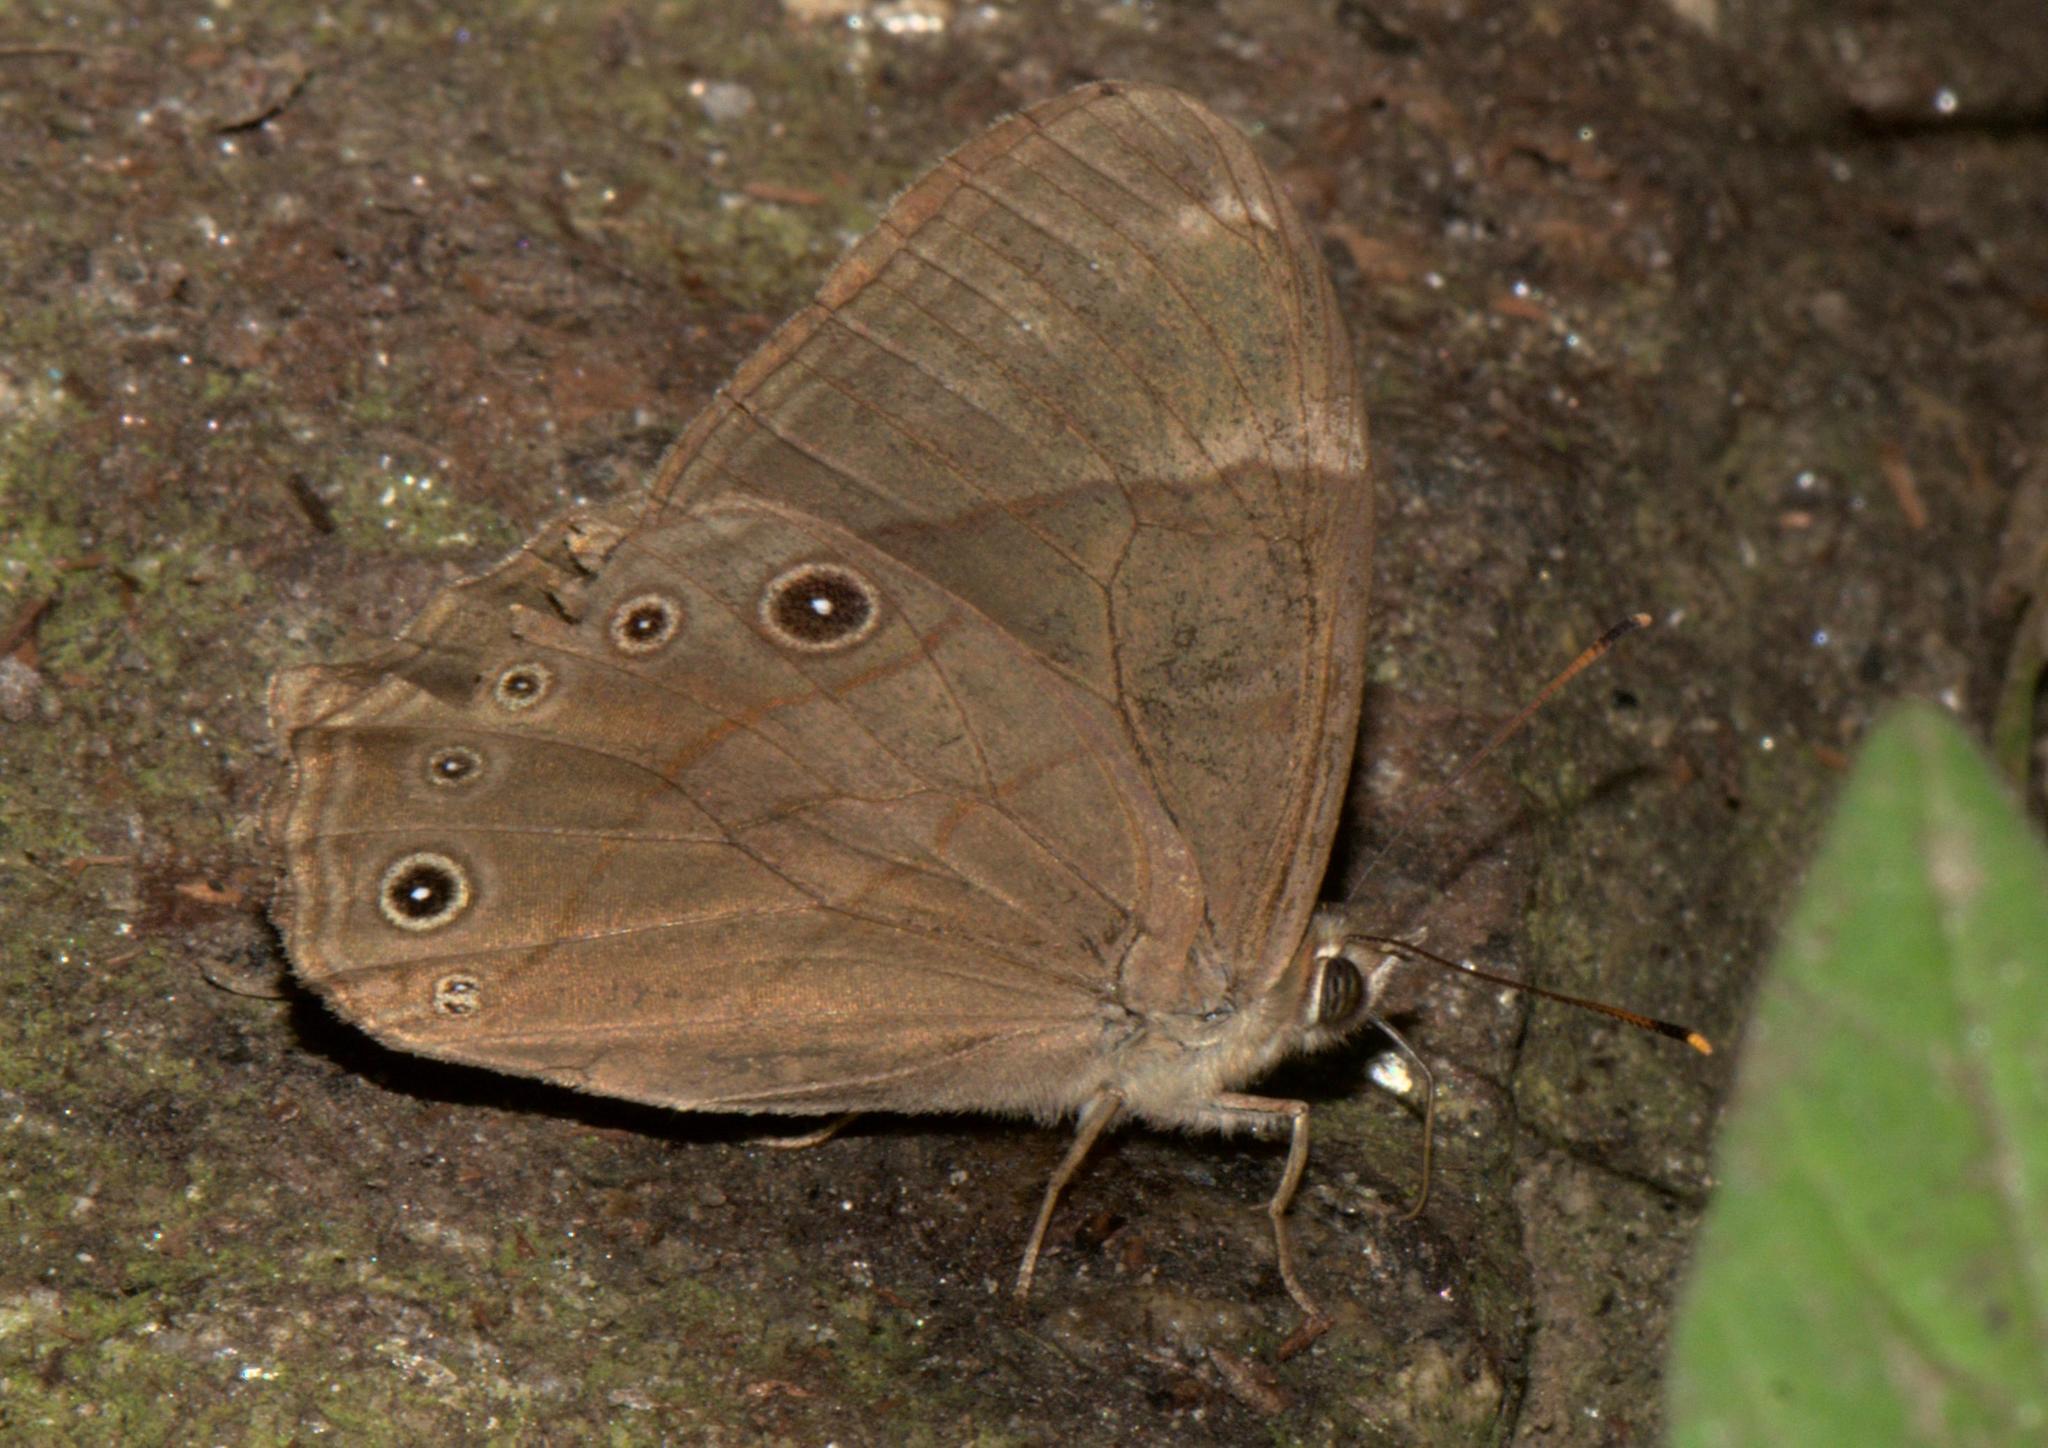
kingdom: Animalia
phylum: Arthropoda
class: Insecta
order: Lepidoptera
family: Nymphalidae
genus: Lethe
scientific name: Lethe
